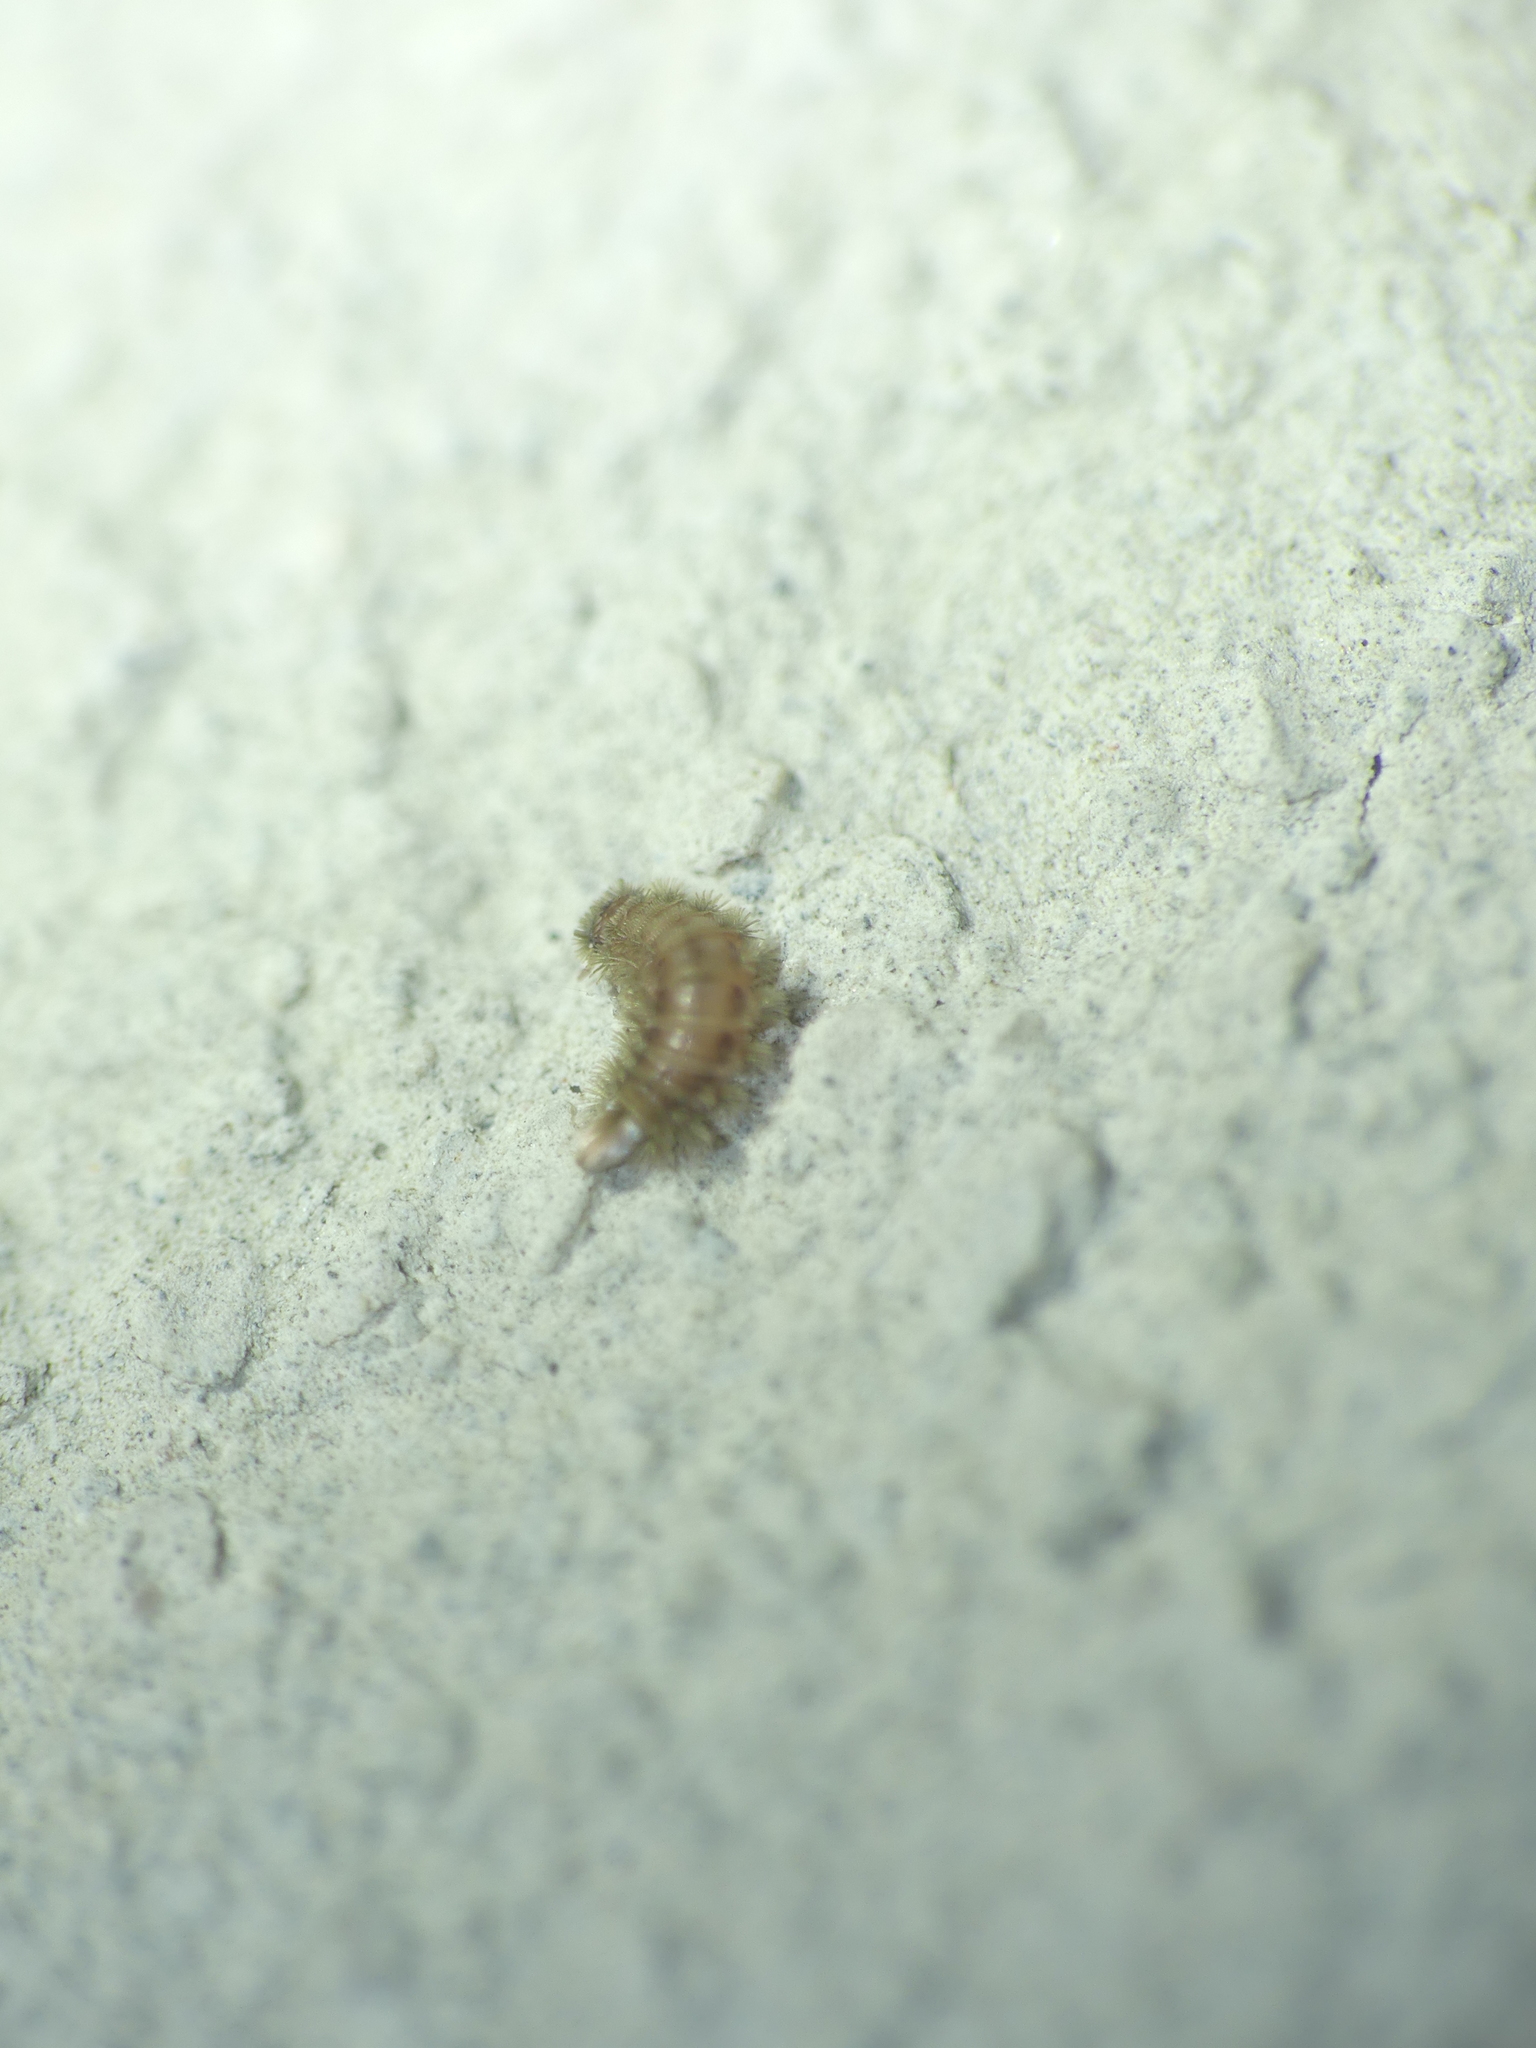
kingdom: Animalia
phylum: Arthropoda
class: Diplopoda
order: Polyxenida
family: Polyxenidae
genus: Polyxenus
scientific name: Polyxenus lagurus
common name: Bristly millipede
